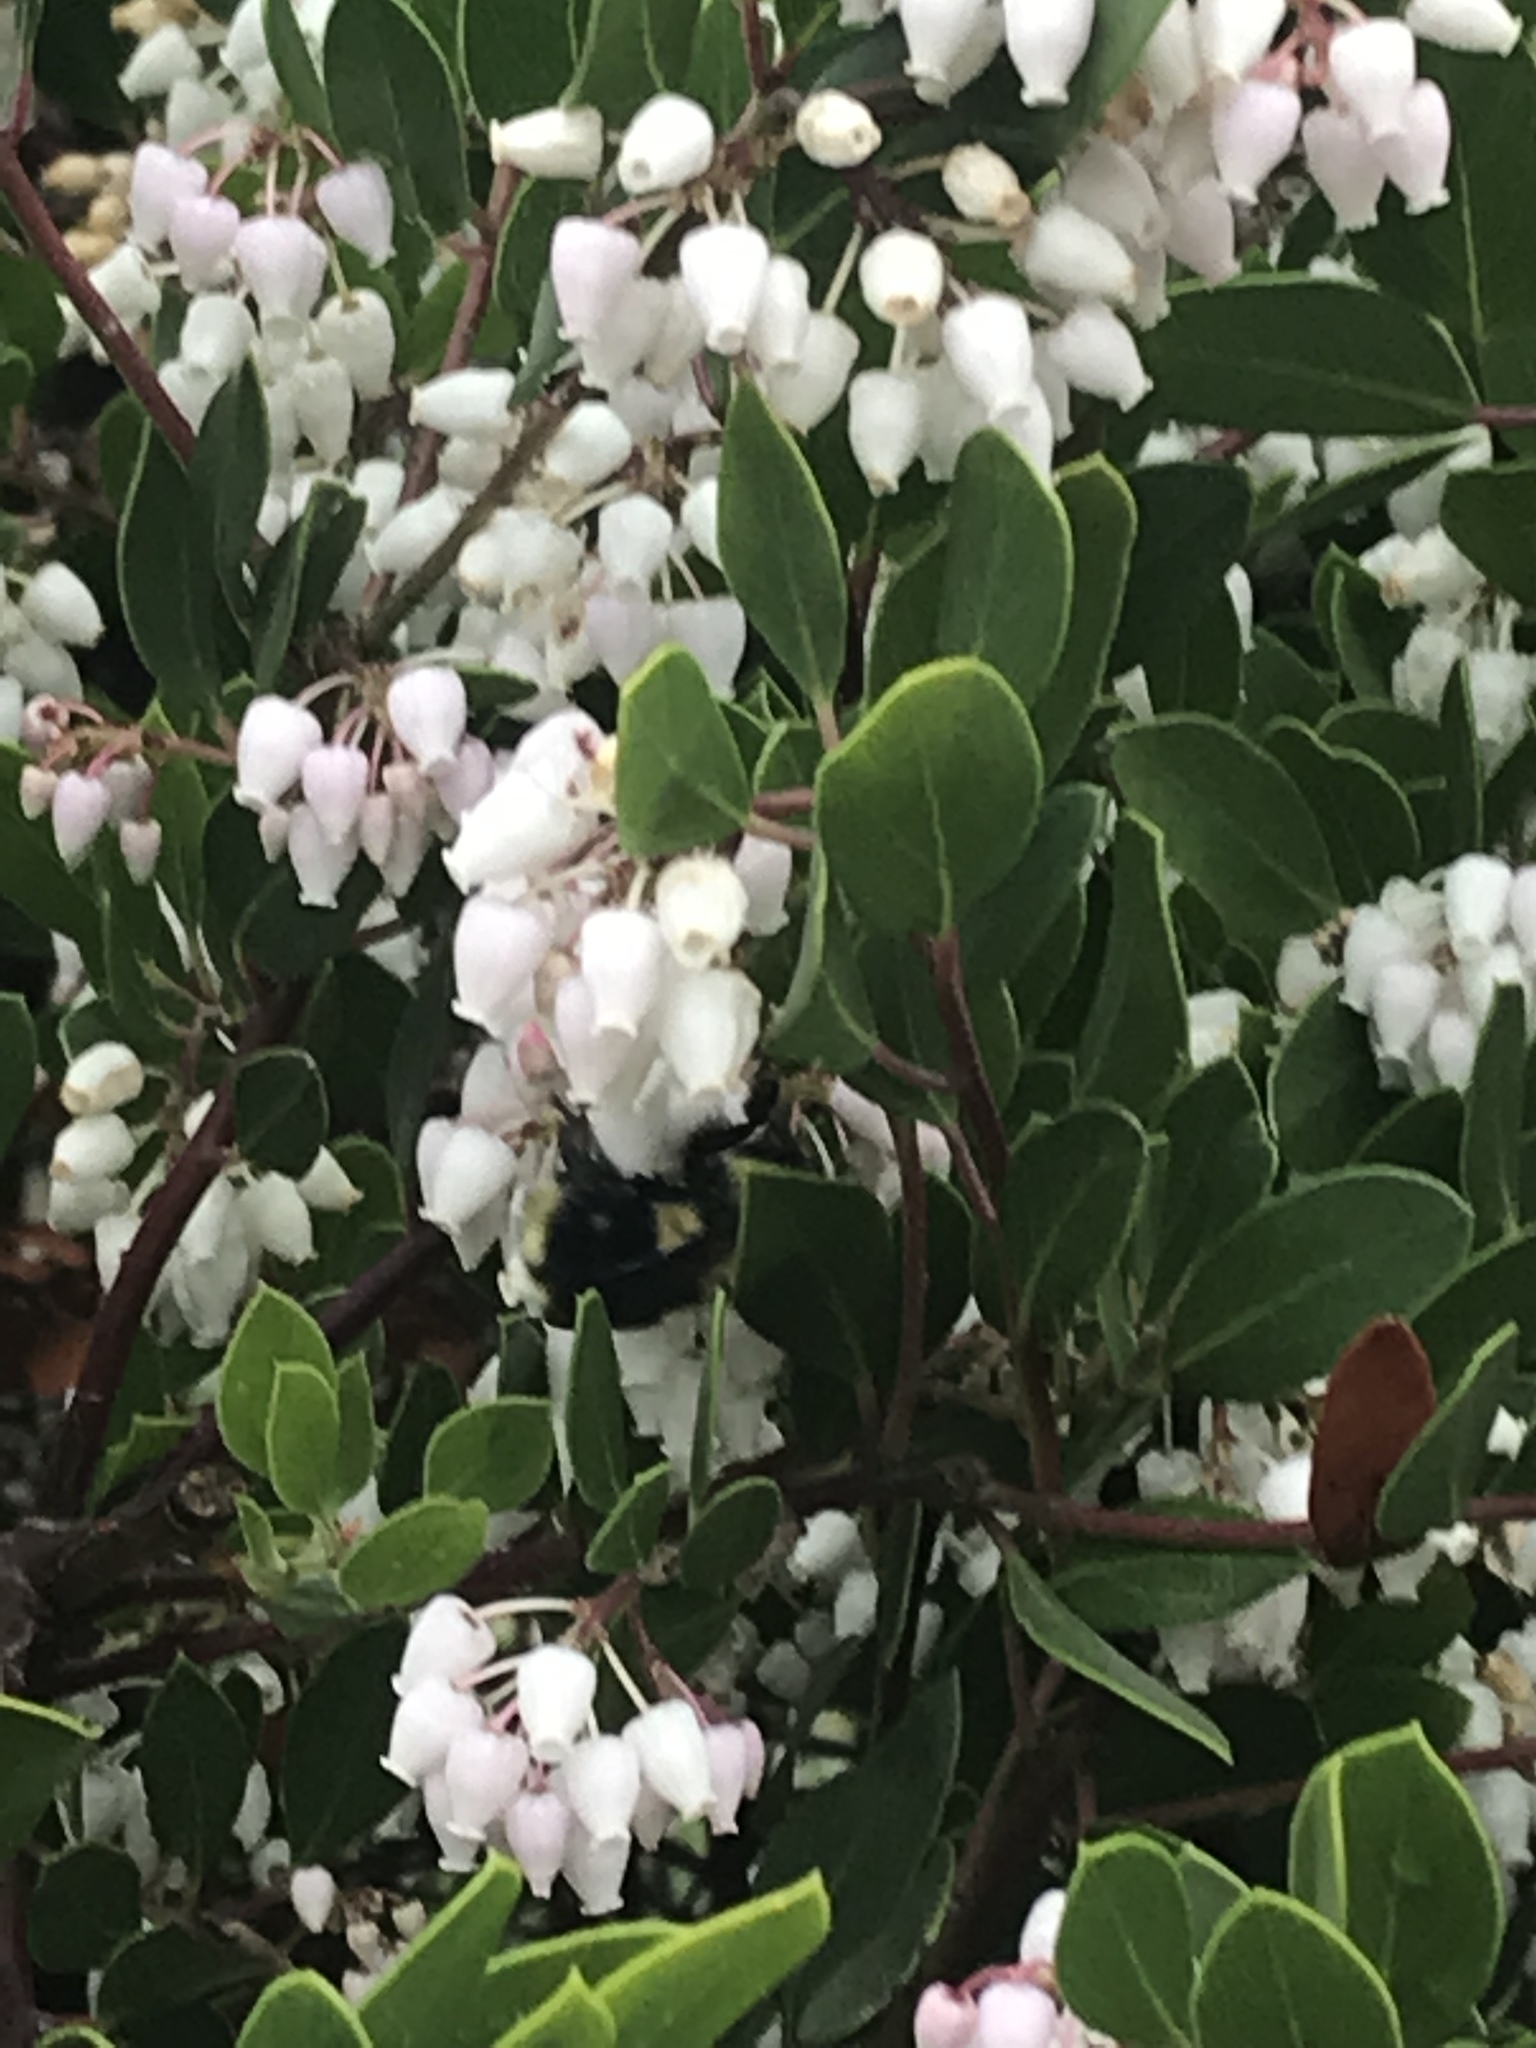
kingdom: Animalia
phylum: Arthropoda
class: Insecta
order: Hymenoptera
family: Apidae
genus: Bombus
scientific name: Bombus melanopygus
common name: Black tail bumble bee
